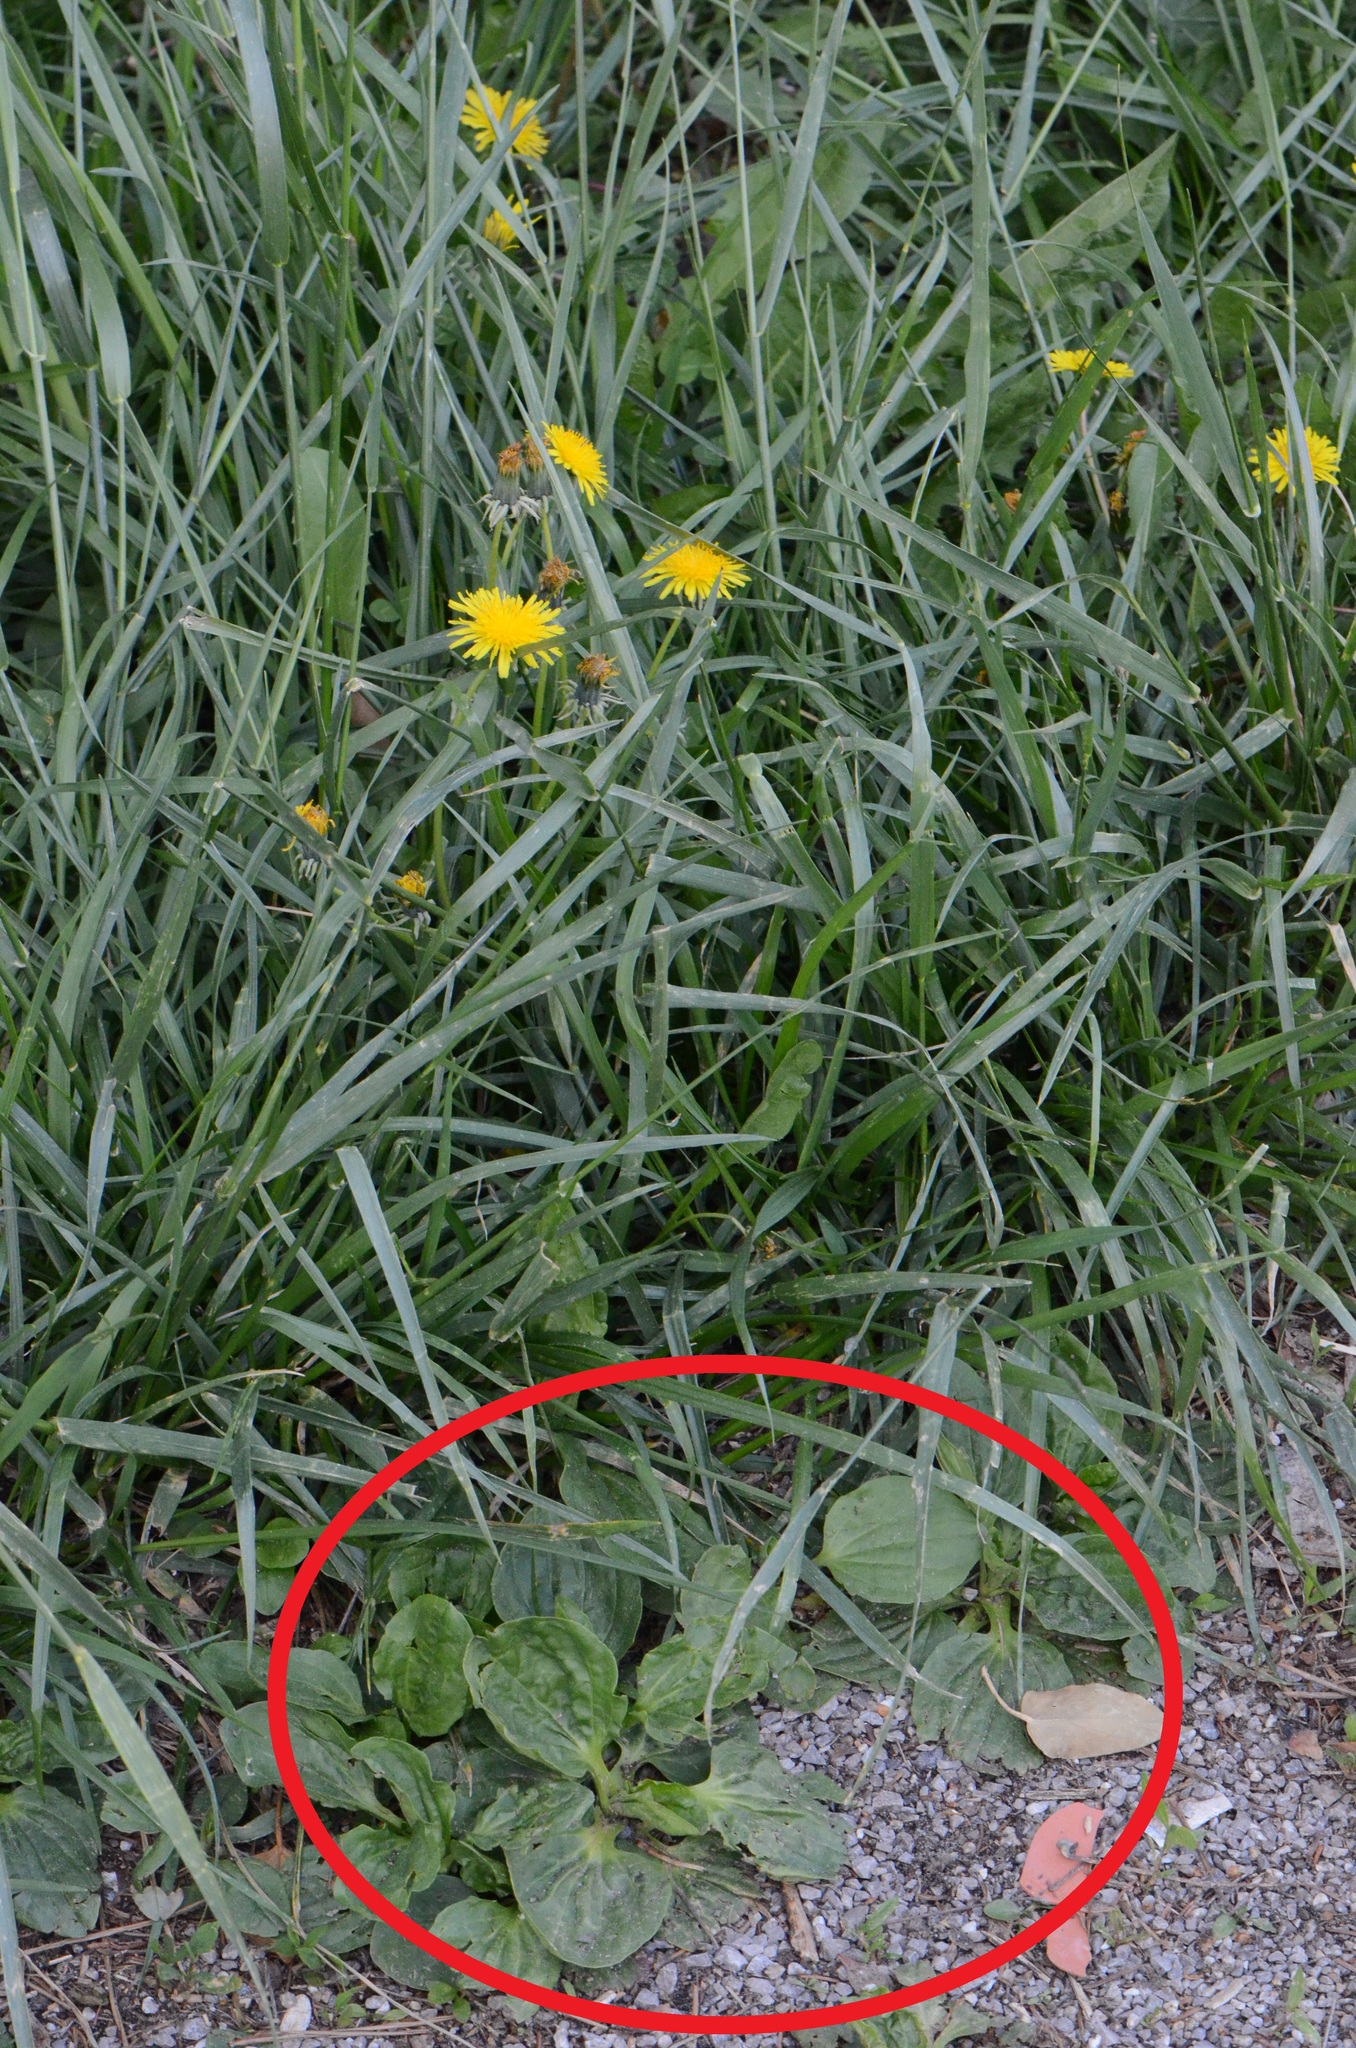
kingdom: Plantae
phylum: Tracheophyta
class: Magnoliopsida
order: Lamiales
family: Plantaginaceae
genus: Plantago
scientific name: Plantago major
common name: Common plantain
